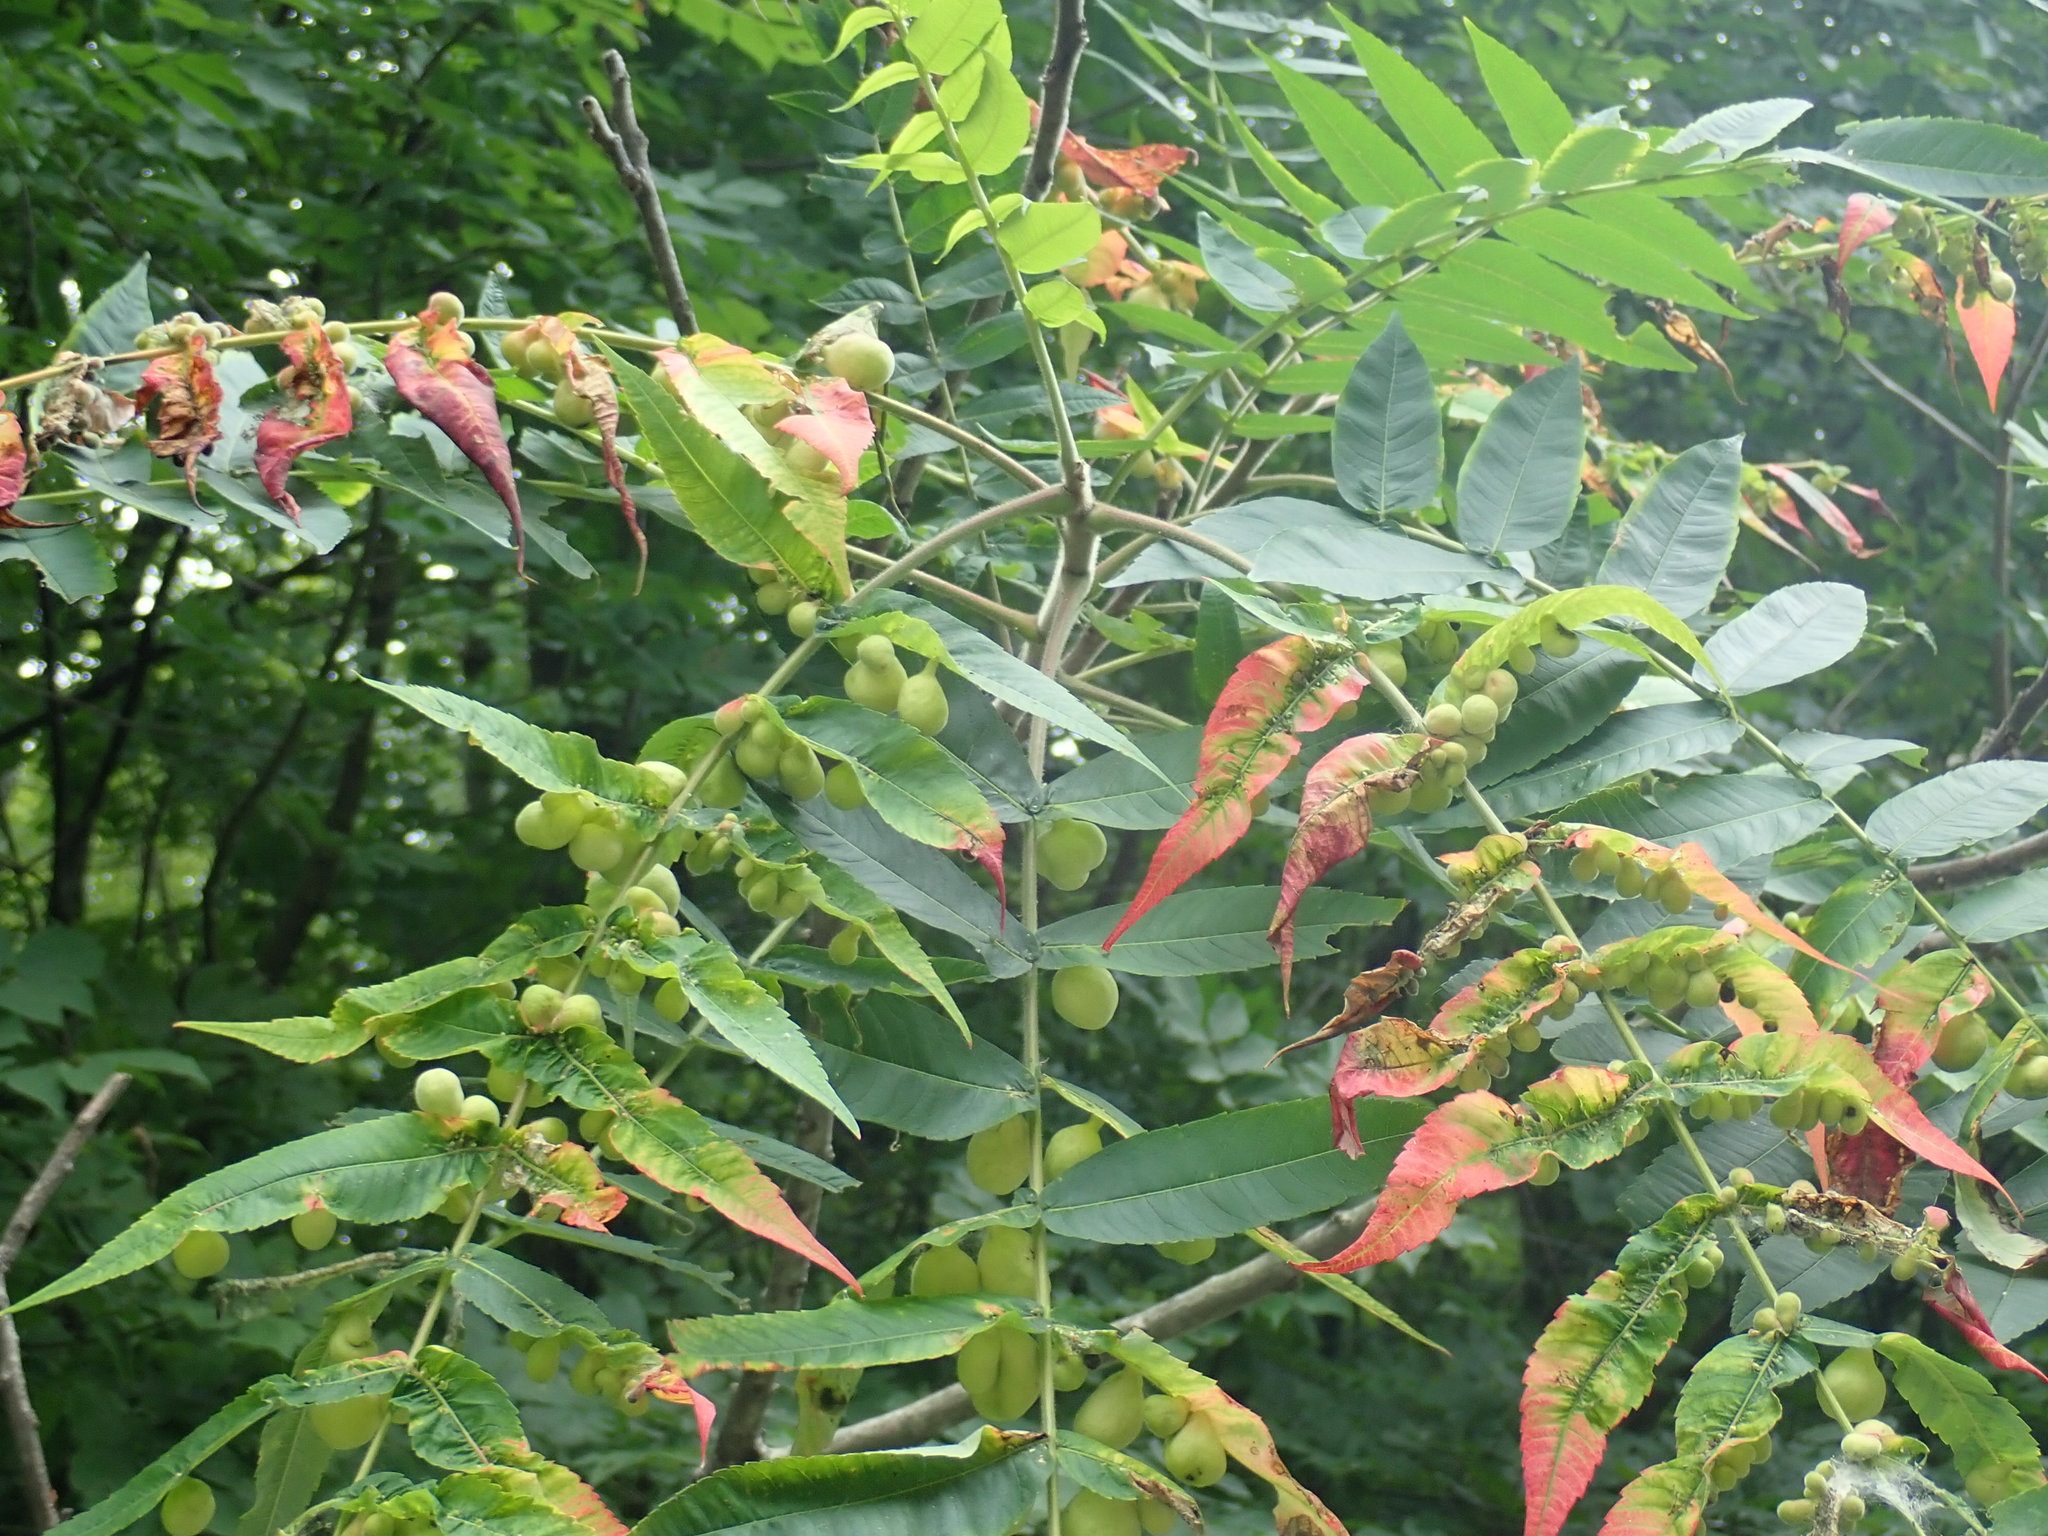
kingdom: Plantae
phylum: Tracheophyta
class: Magnoliopsida
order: Sapindales
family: Anacardiaceae
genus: Rhus
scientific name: Rhus typhina
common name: Staghorn sumac
